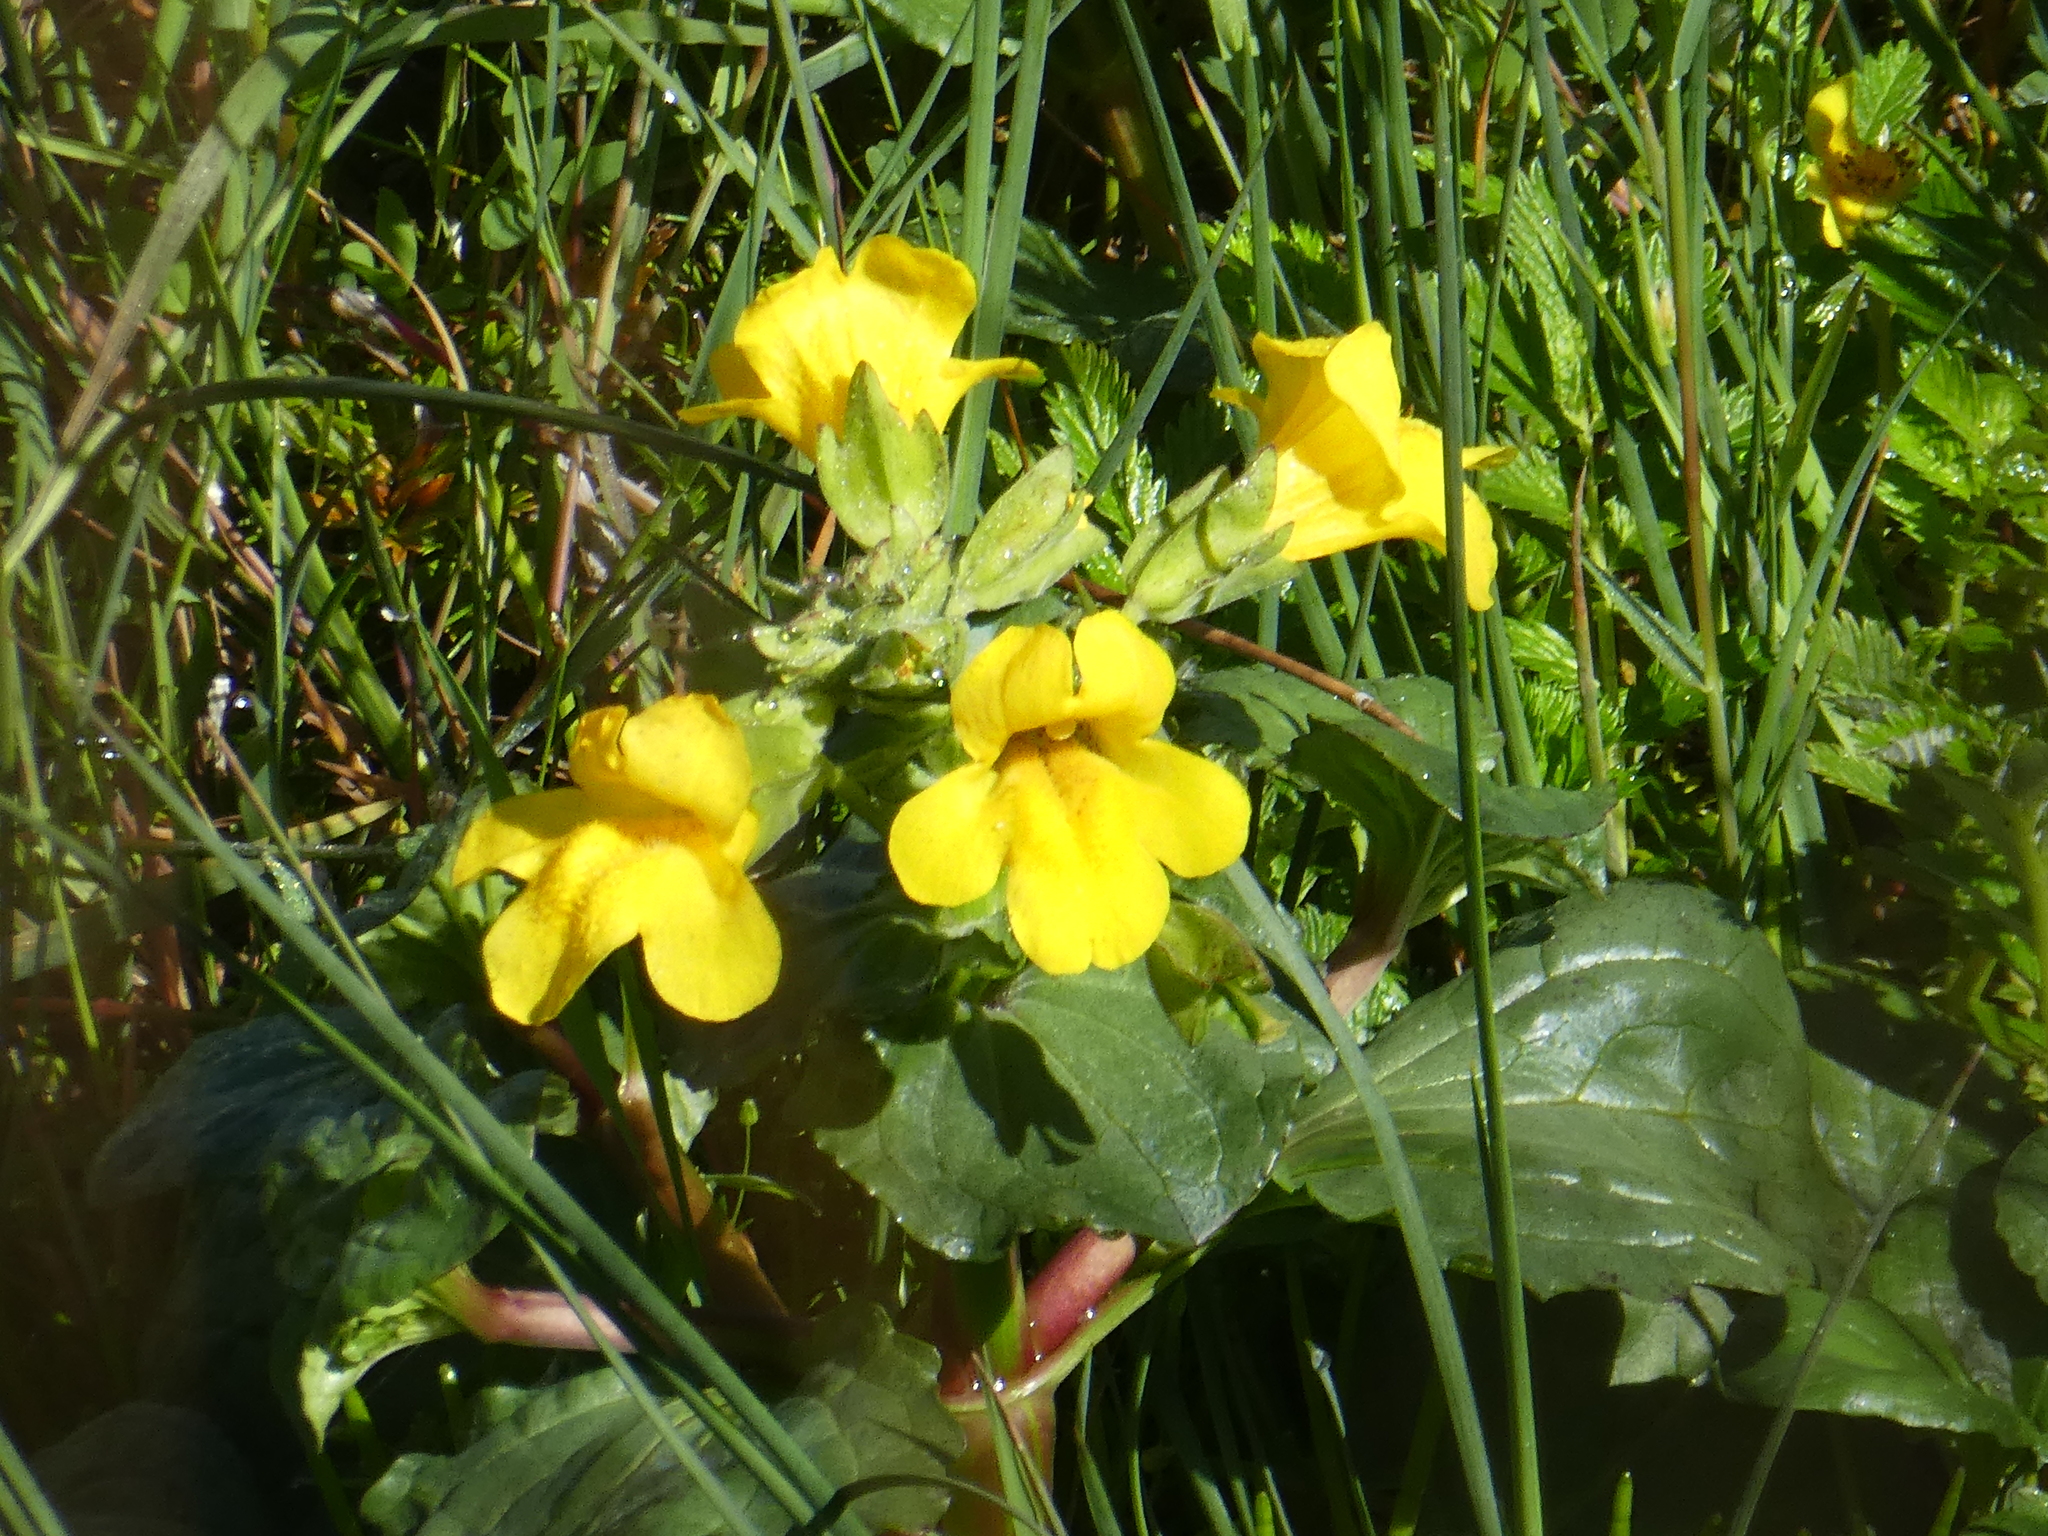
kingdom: Plantae
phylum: Tracheophyta
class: Magnoliopsida
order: Lamiales
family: Phrymaceae
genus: Erythranthe
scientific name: Erythranthe grandis
